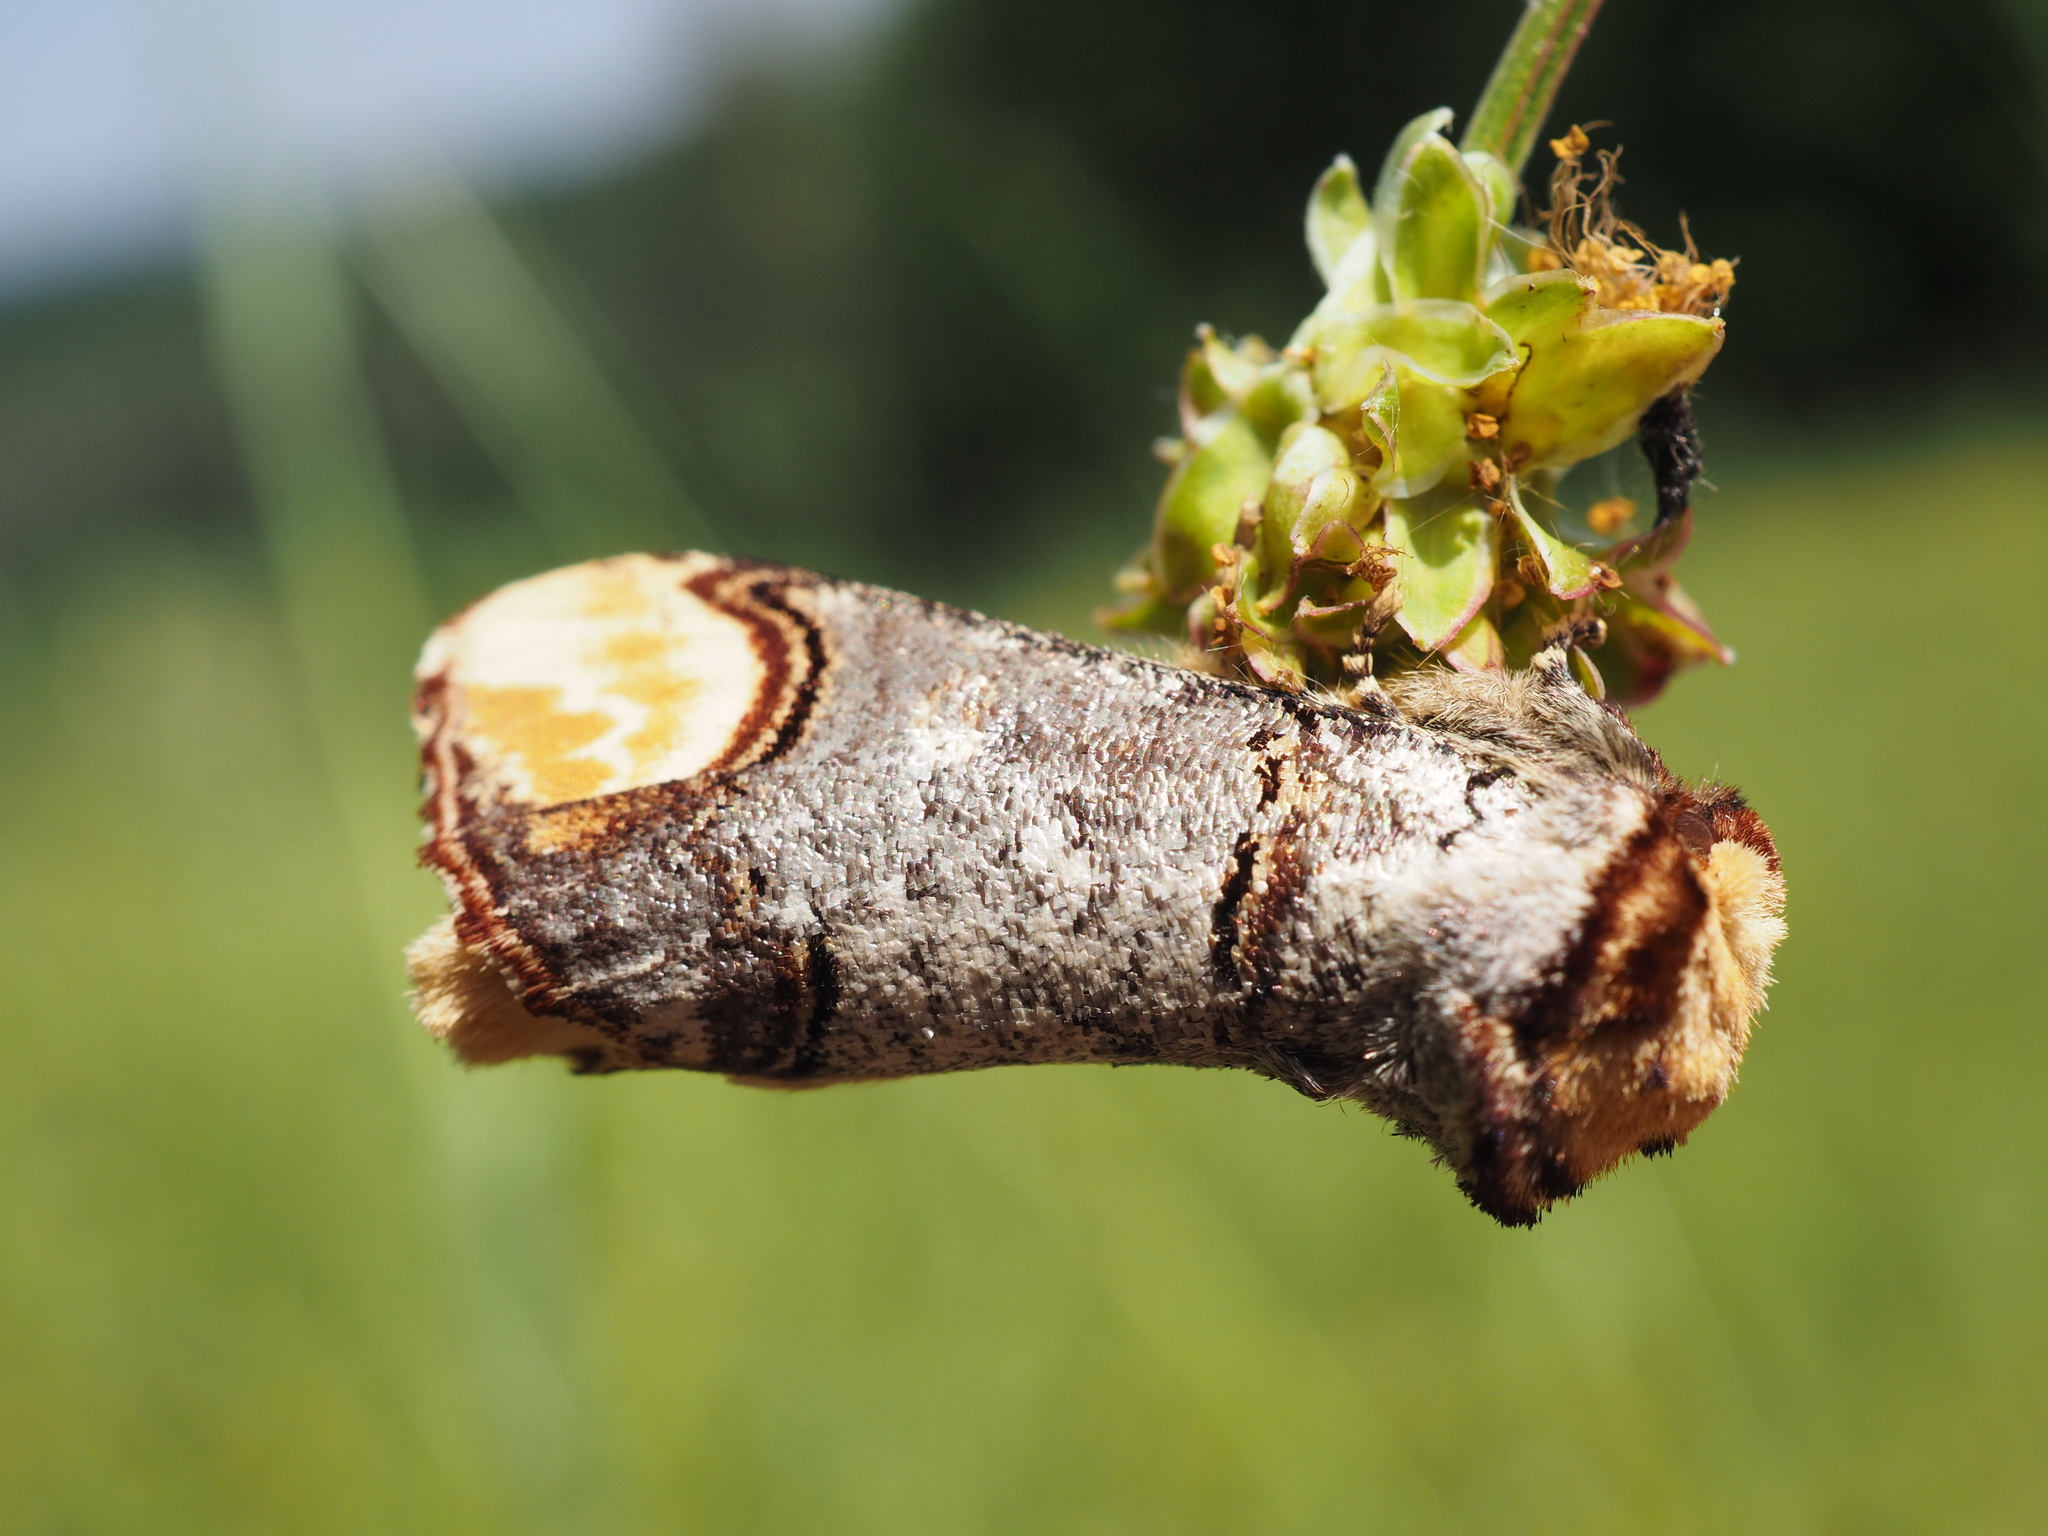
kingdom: Animalia
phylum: Arthropoda
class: Insecta
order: Lepidoptera
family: Notodontidae
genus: Phalera
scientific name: Phalera bucephala
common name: Buff-tip
